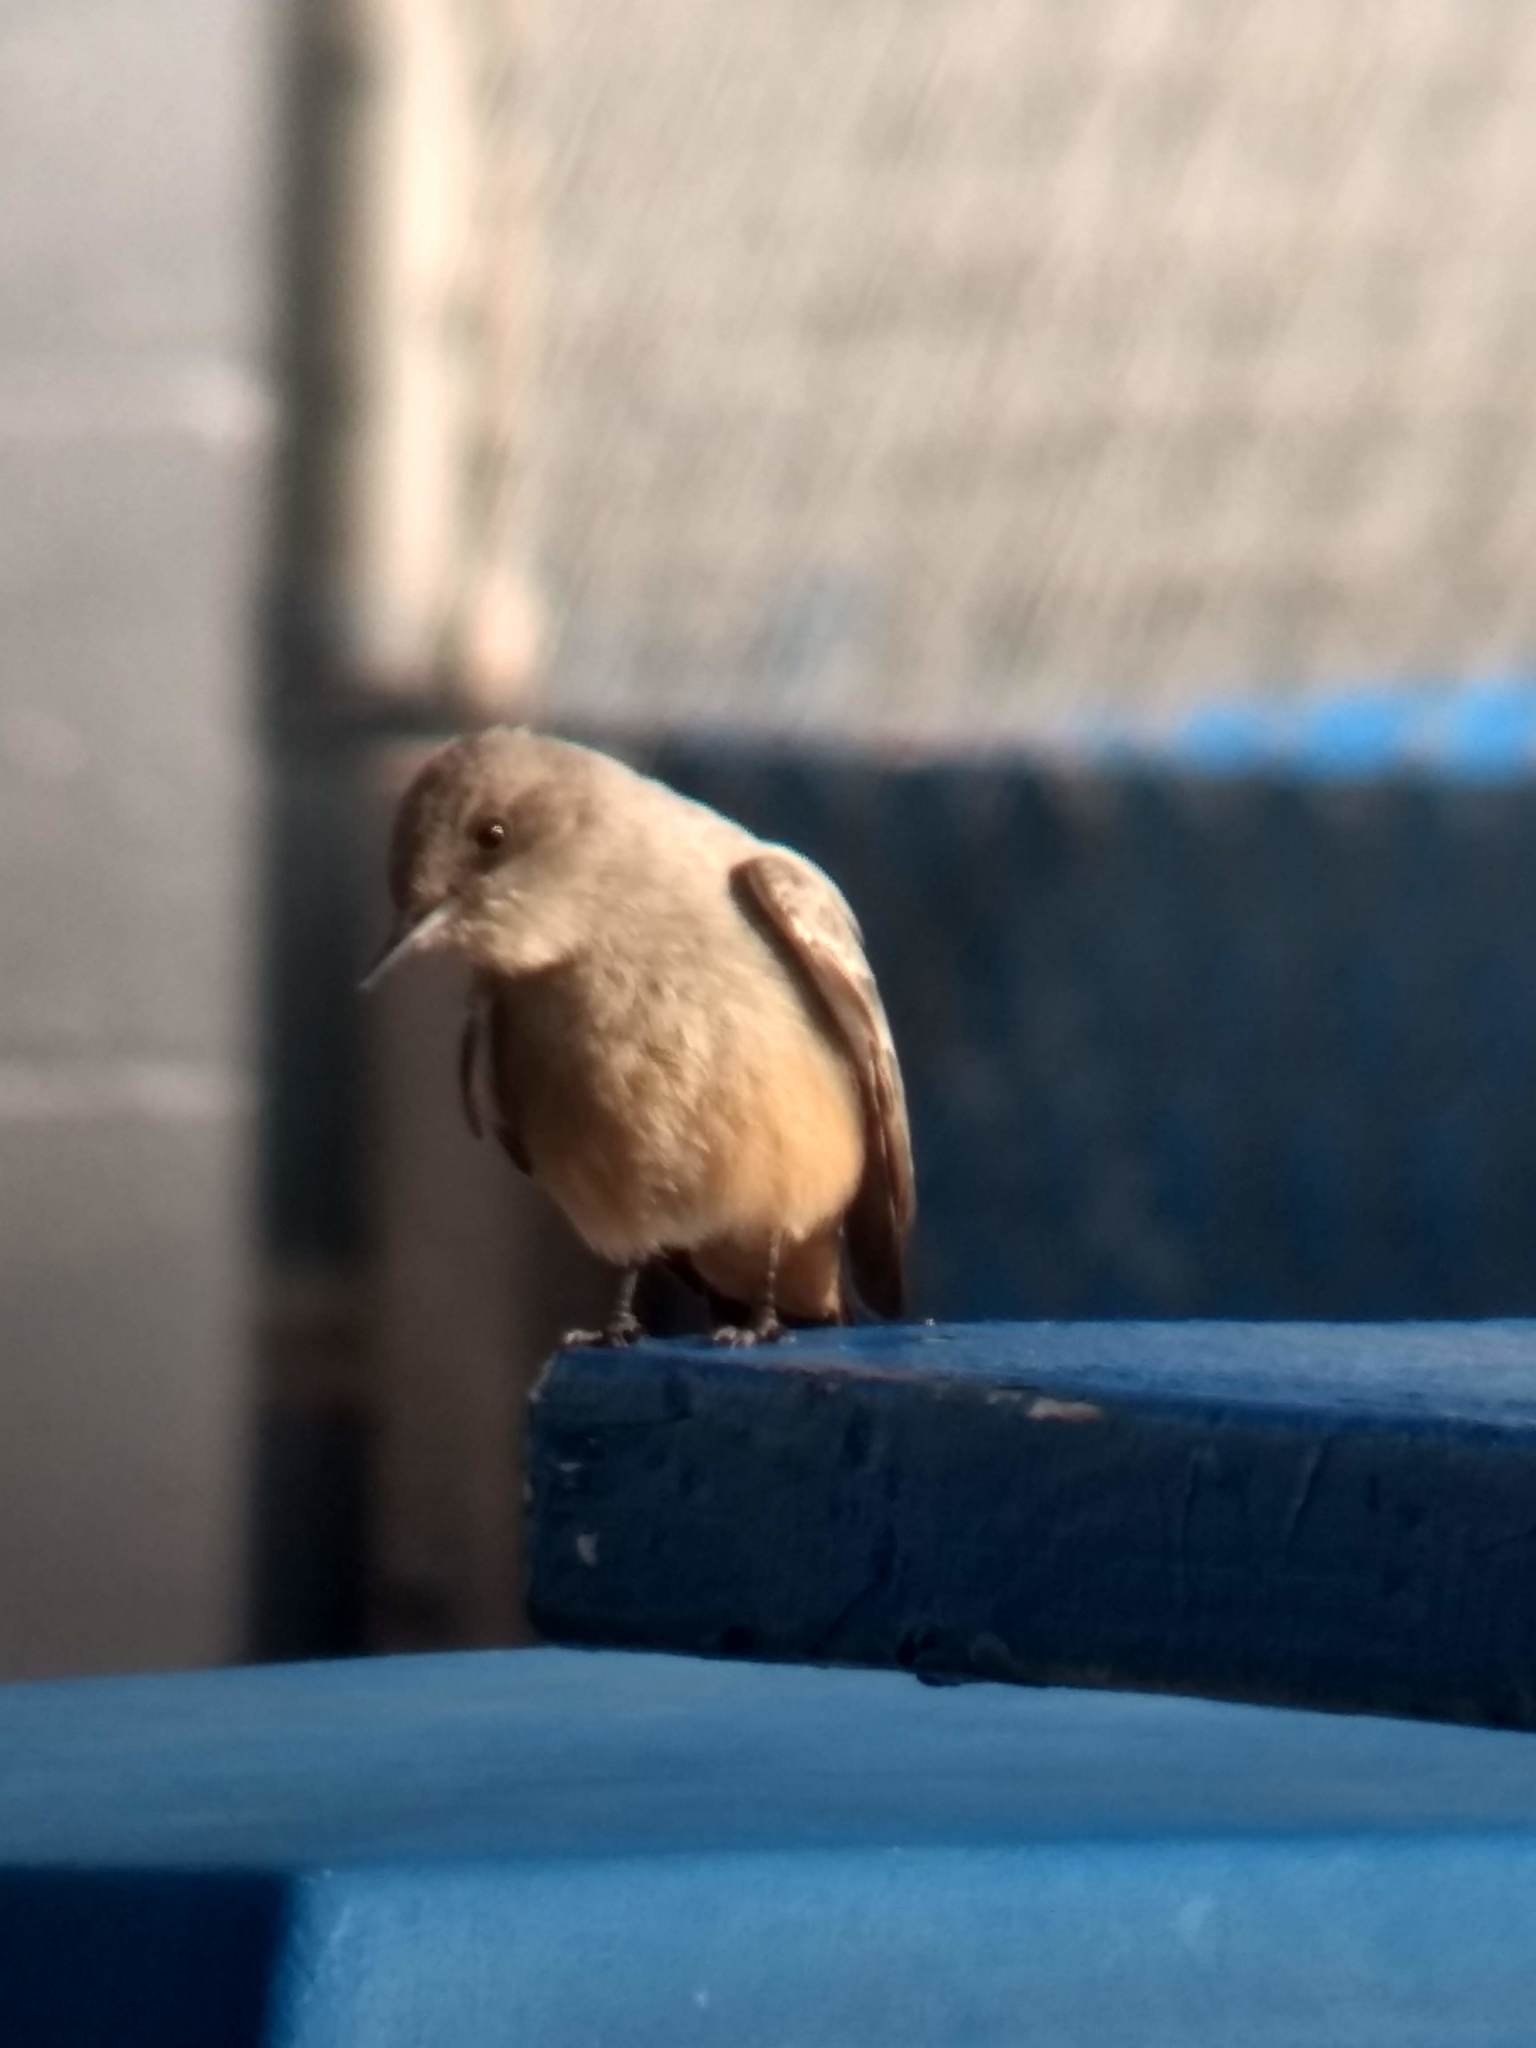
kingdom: Animalia
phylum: Chordata
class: Aves
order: Passeriformes
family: Tyrannidae
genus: Sayornis
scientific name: Sayornis saya
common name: Say's phoebe
